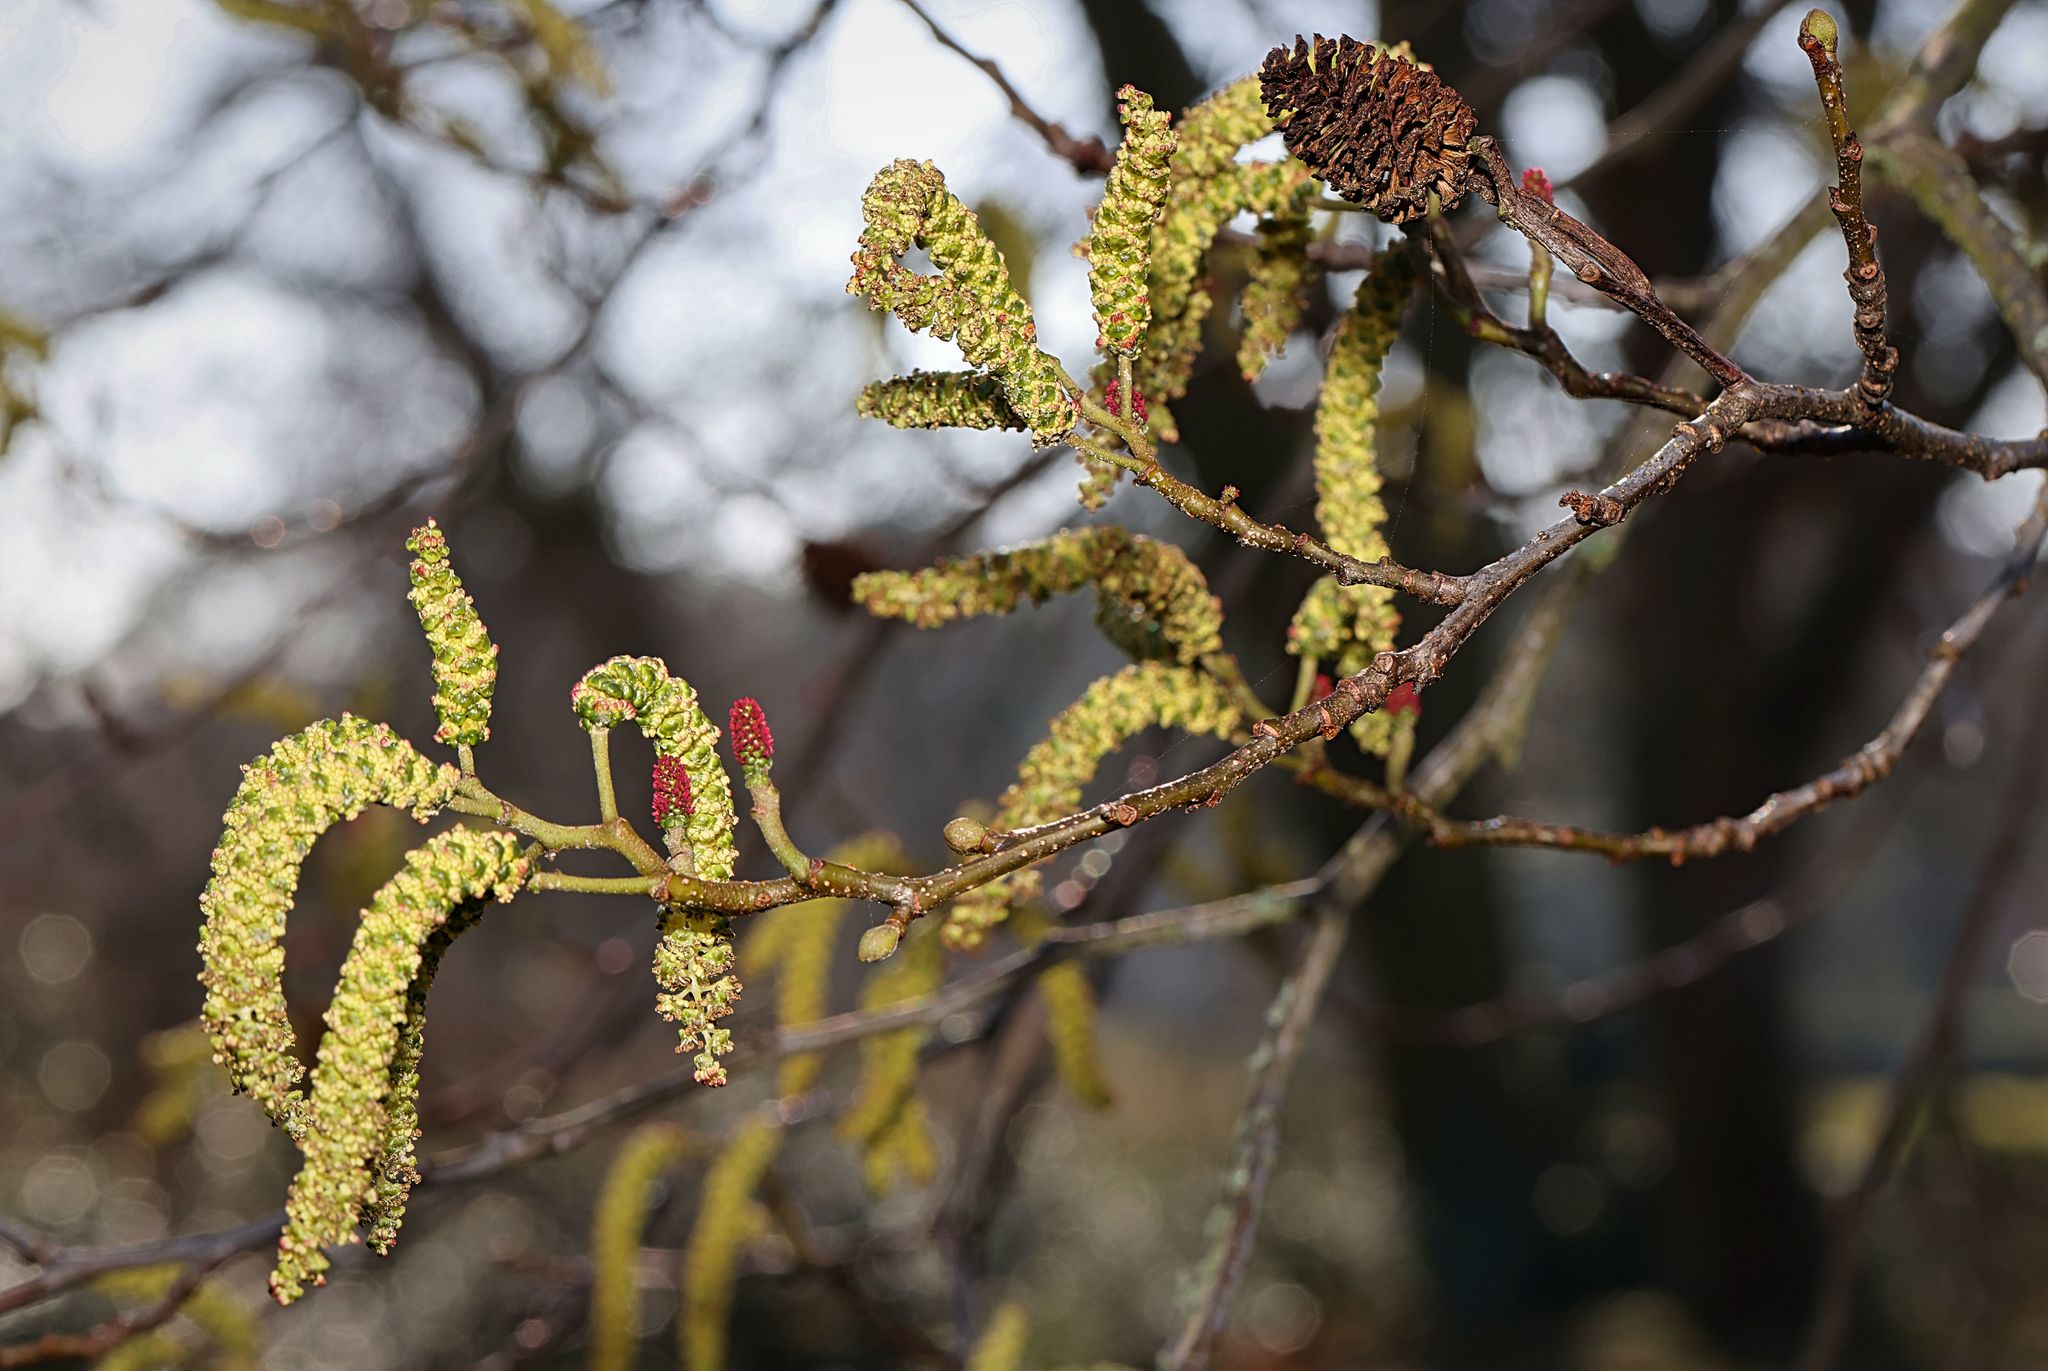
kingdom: Plantae
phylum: Tracheophyta
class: Magnoliopsida
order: Fagales
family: Betulaceae
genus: Alnus
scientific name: Alnus glutinosa
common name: Black alder
